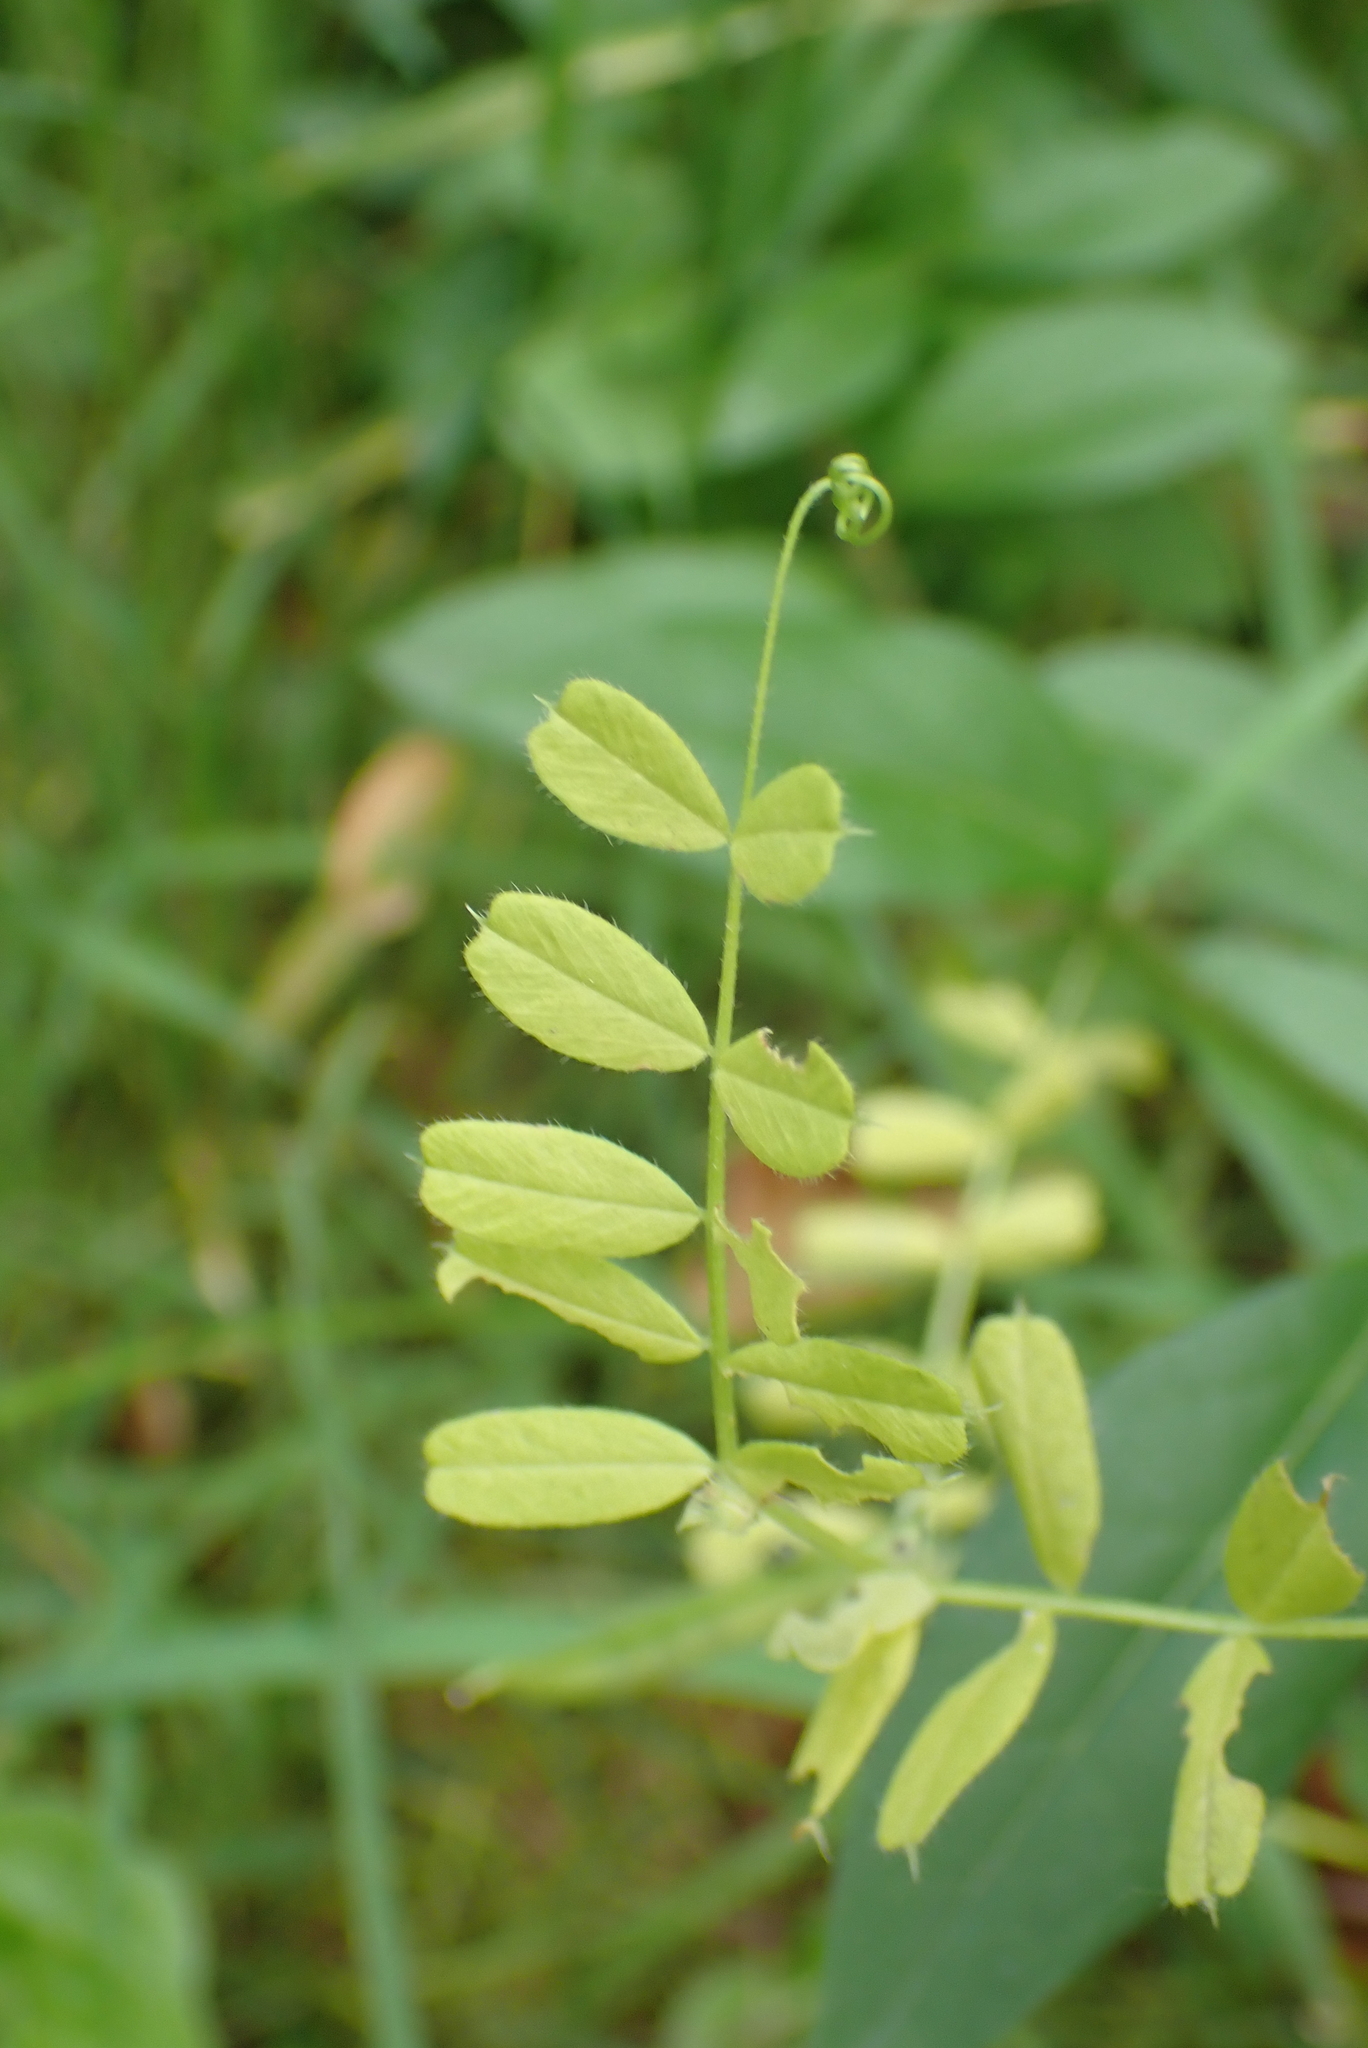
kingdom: Plantae
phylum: Tracheophyta
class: Magnoliopsida
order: Fabales
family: Fabaceae
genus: Vicia
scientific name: Vicia sativa
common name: Garden vetch
